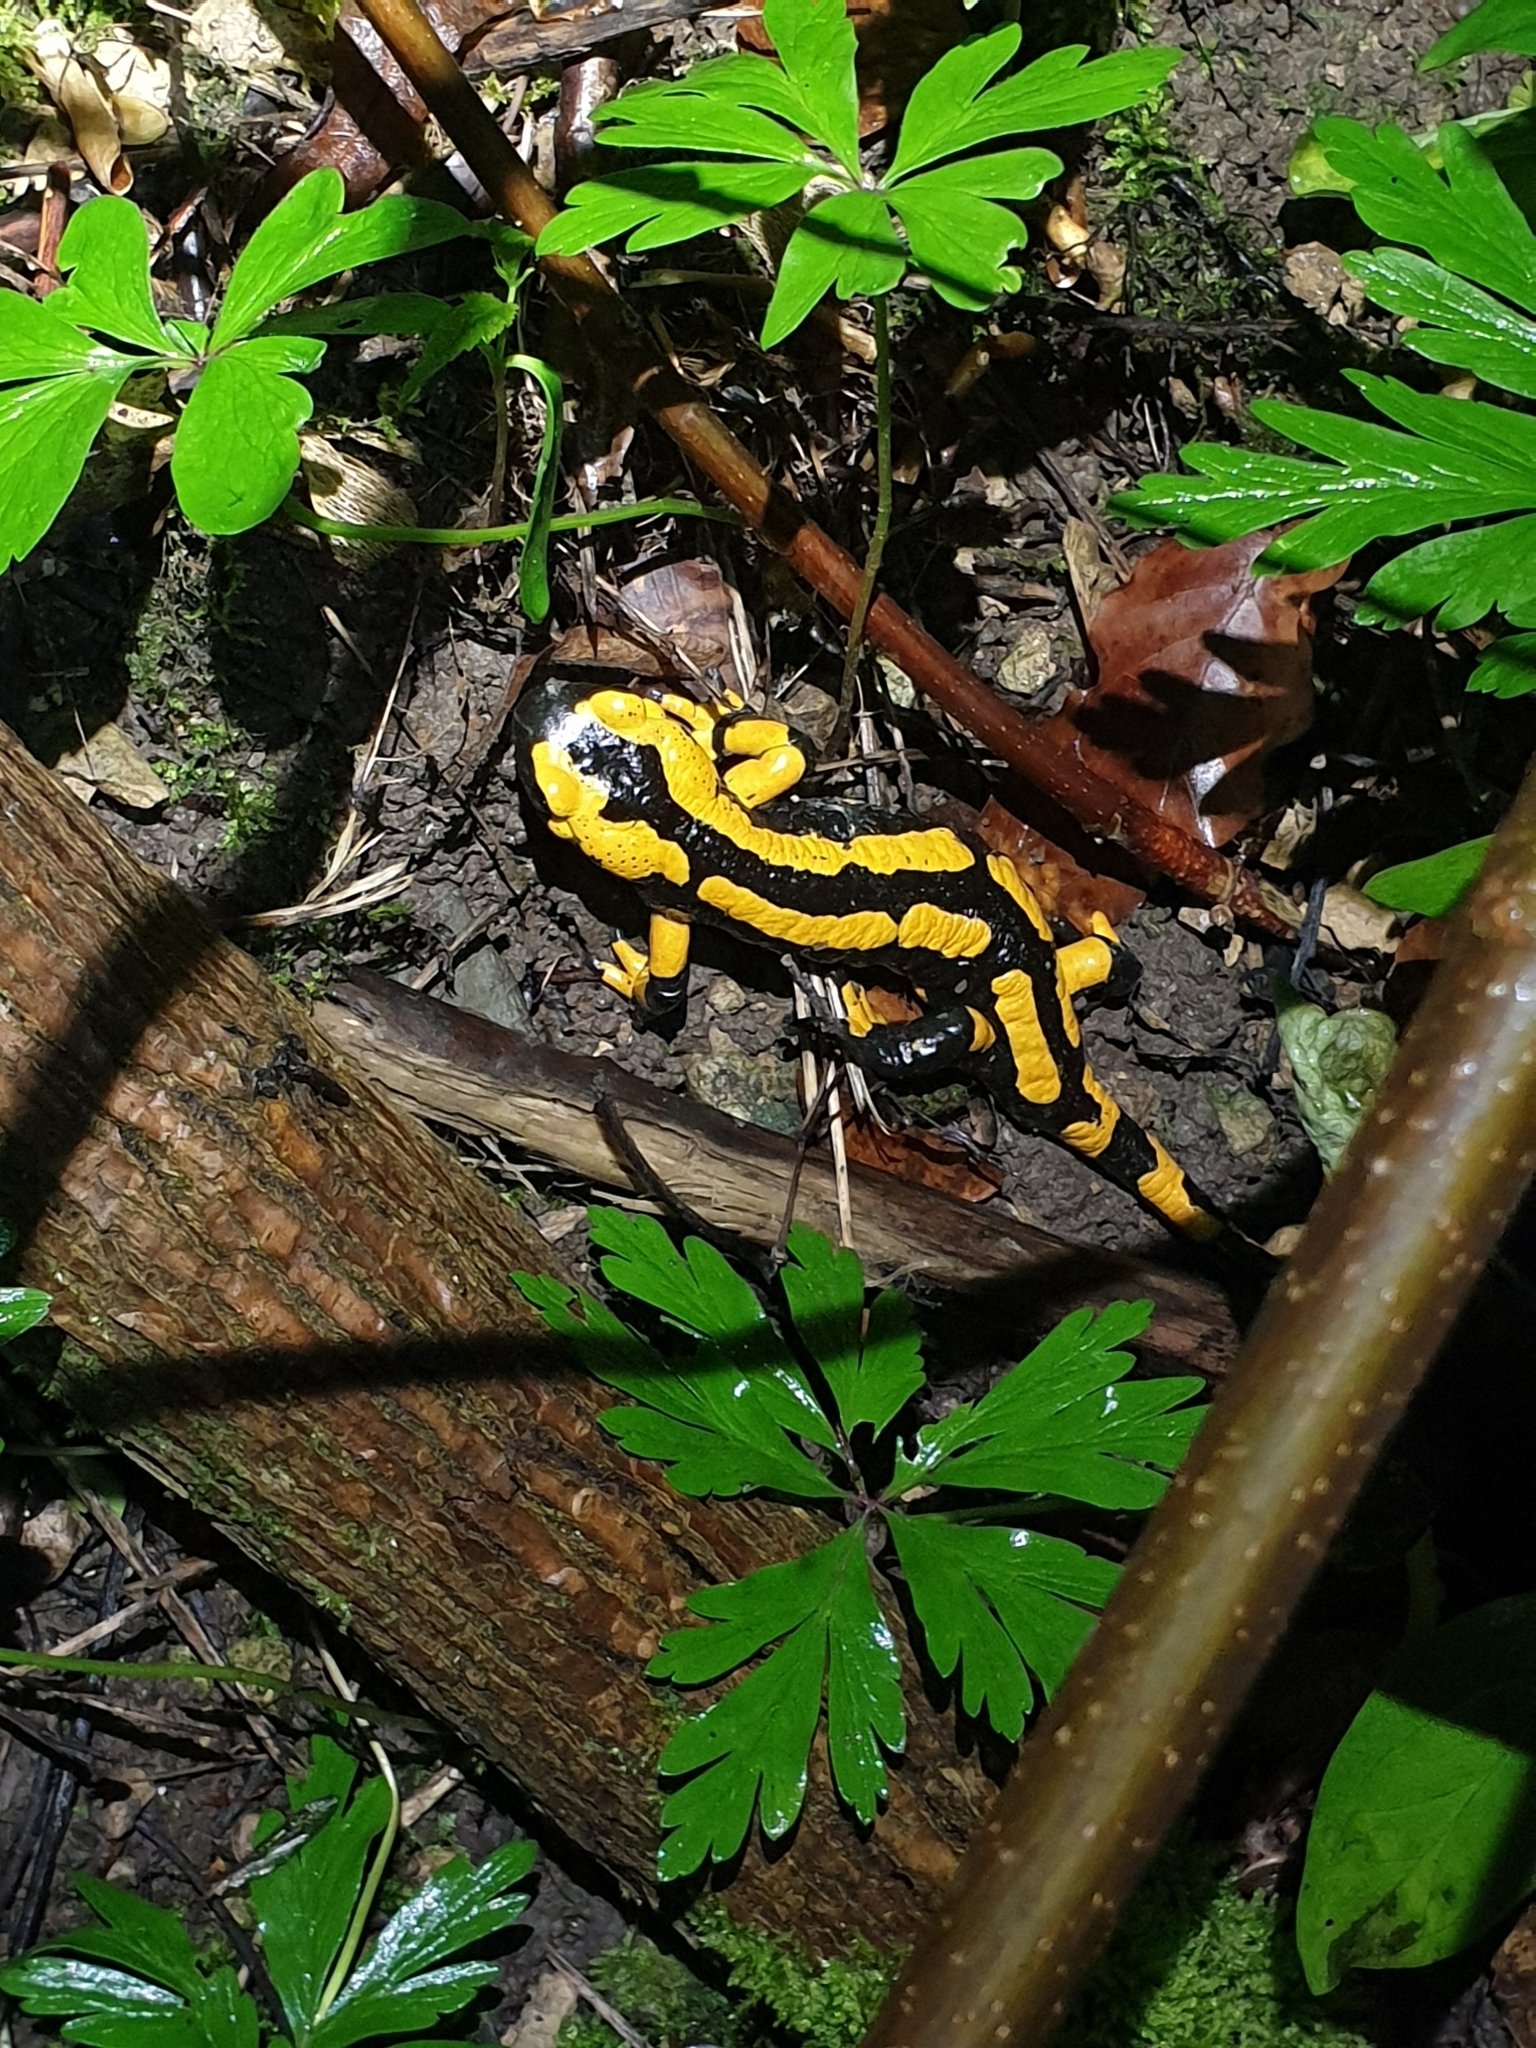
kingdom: Animalia
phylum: Chordata
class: Amphibia
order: Caudata
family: Salamandridae
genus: Salamandra
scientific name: Salamandra salamandra
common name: Fire salamander
